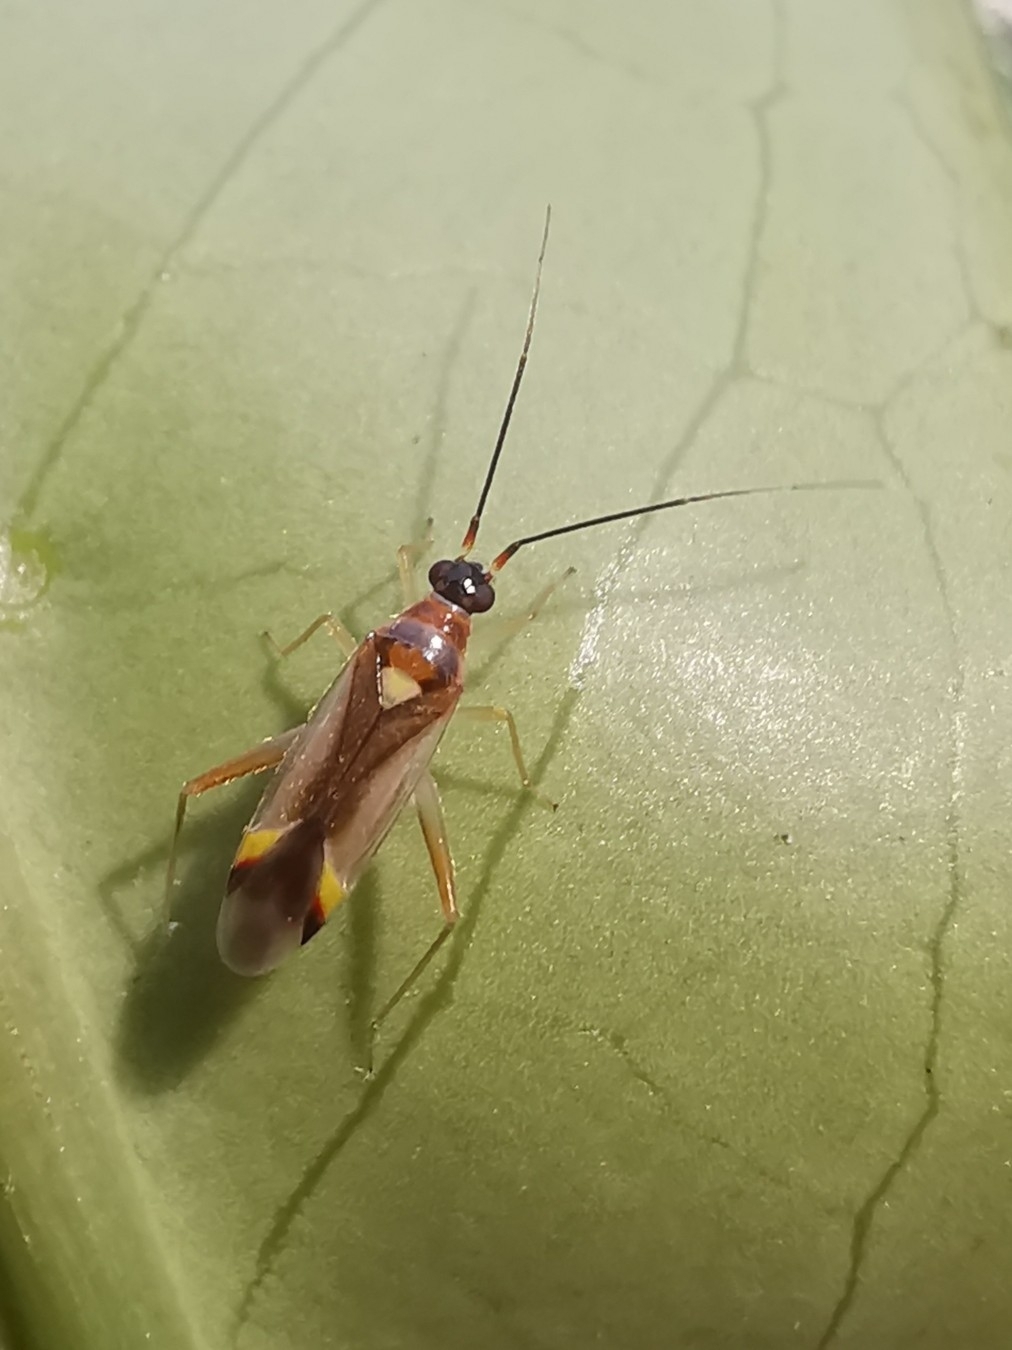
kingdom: Animalia
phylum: Arthropoda
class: Insecta
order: Hemiptera
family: Miridae
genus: Campyloneura
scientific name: Campyloneura virgula
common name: Predatory bug
